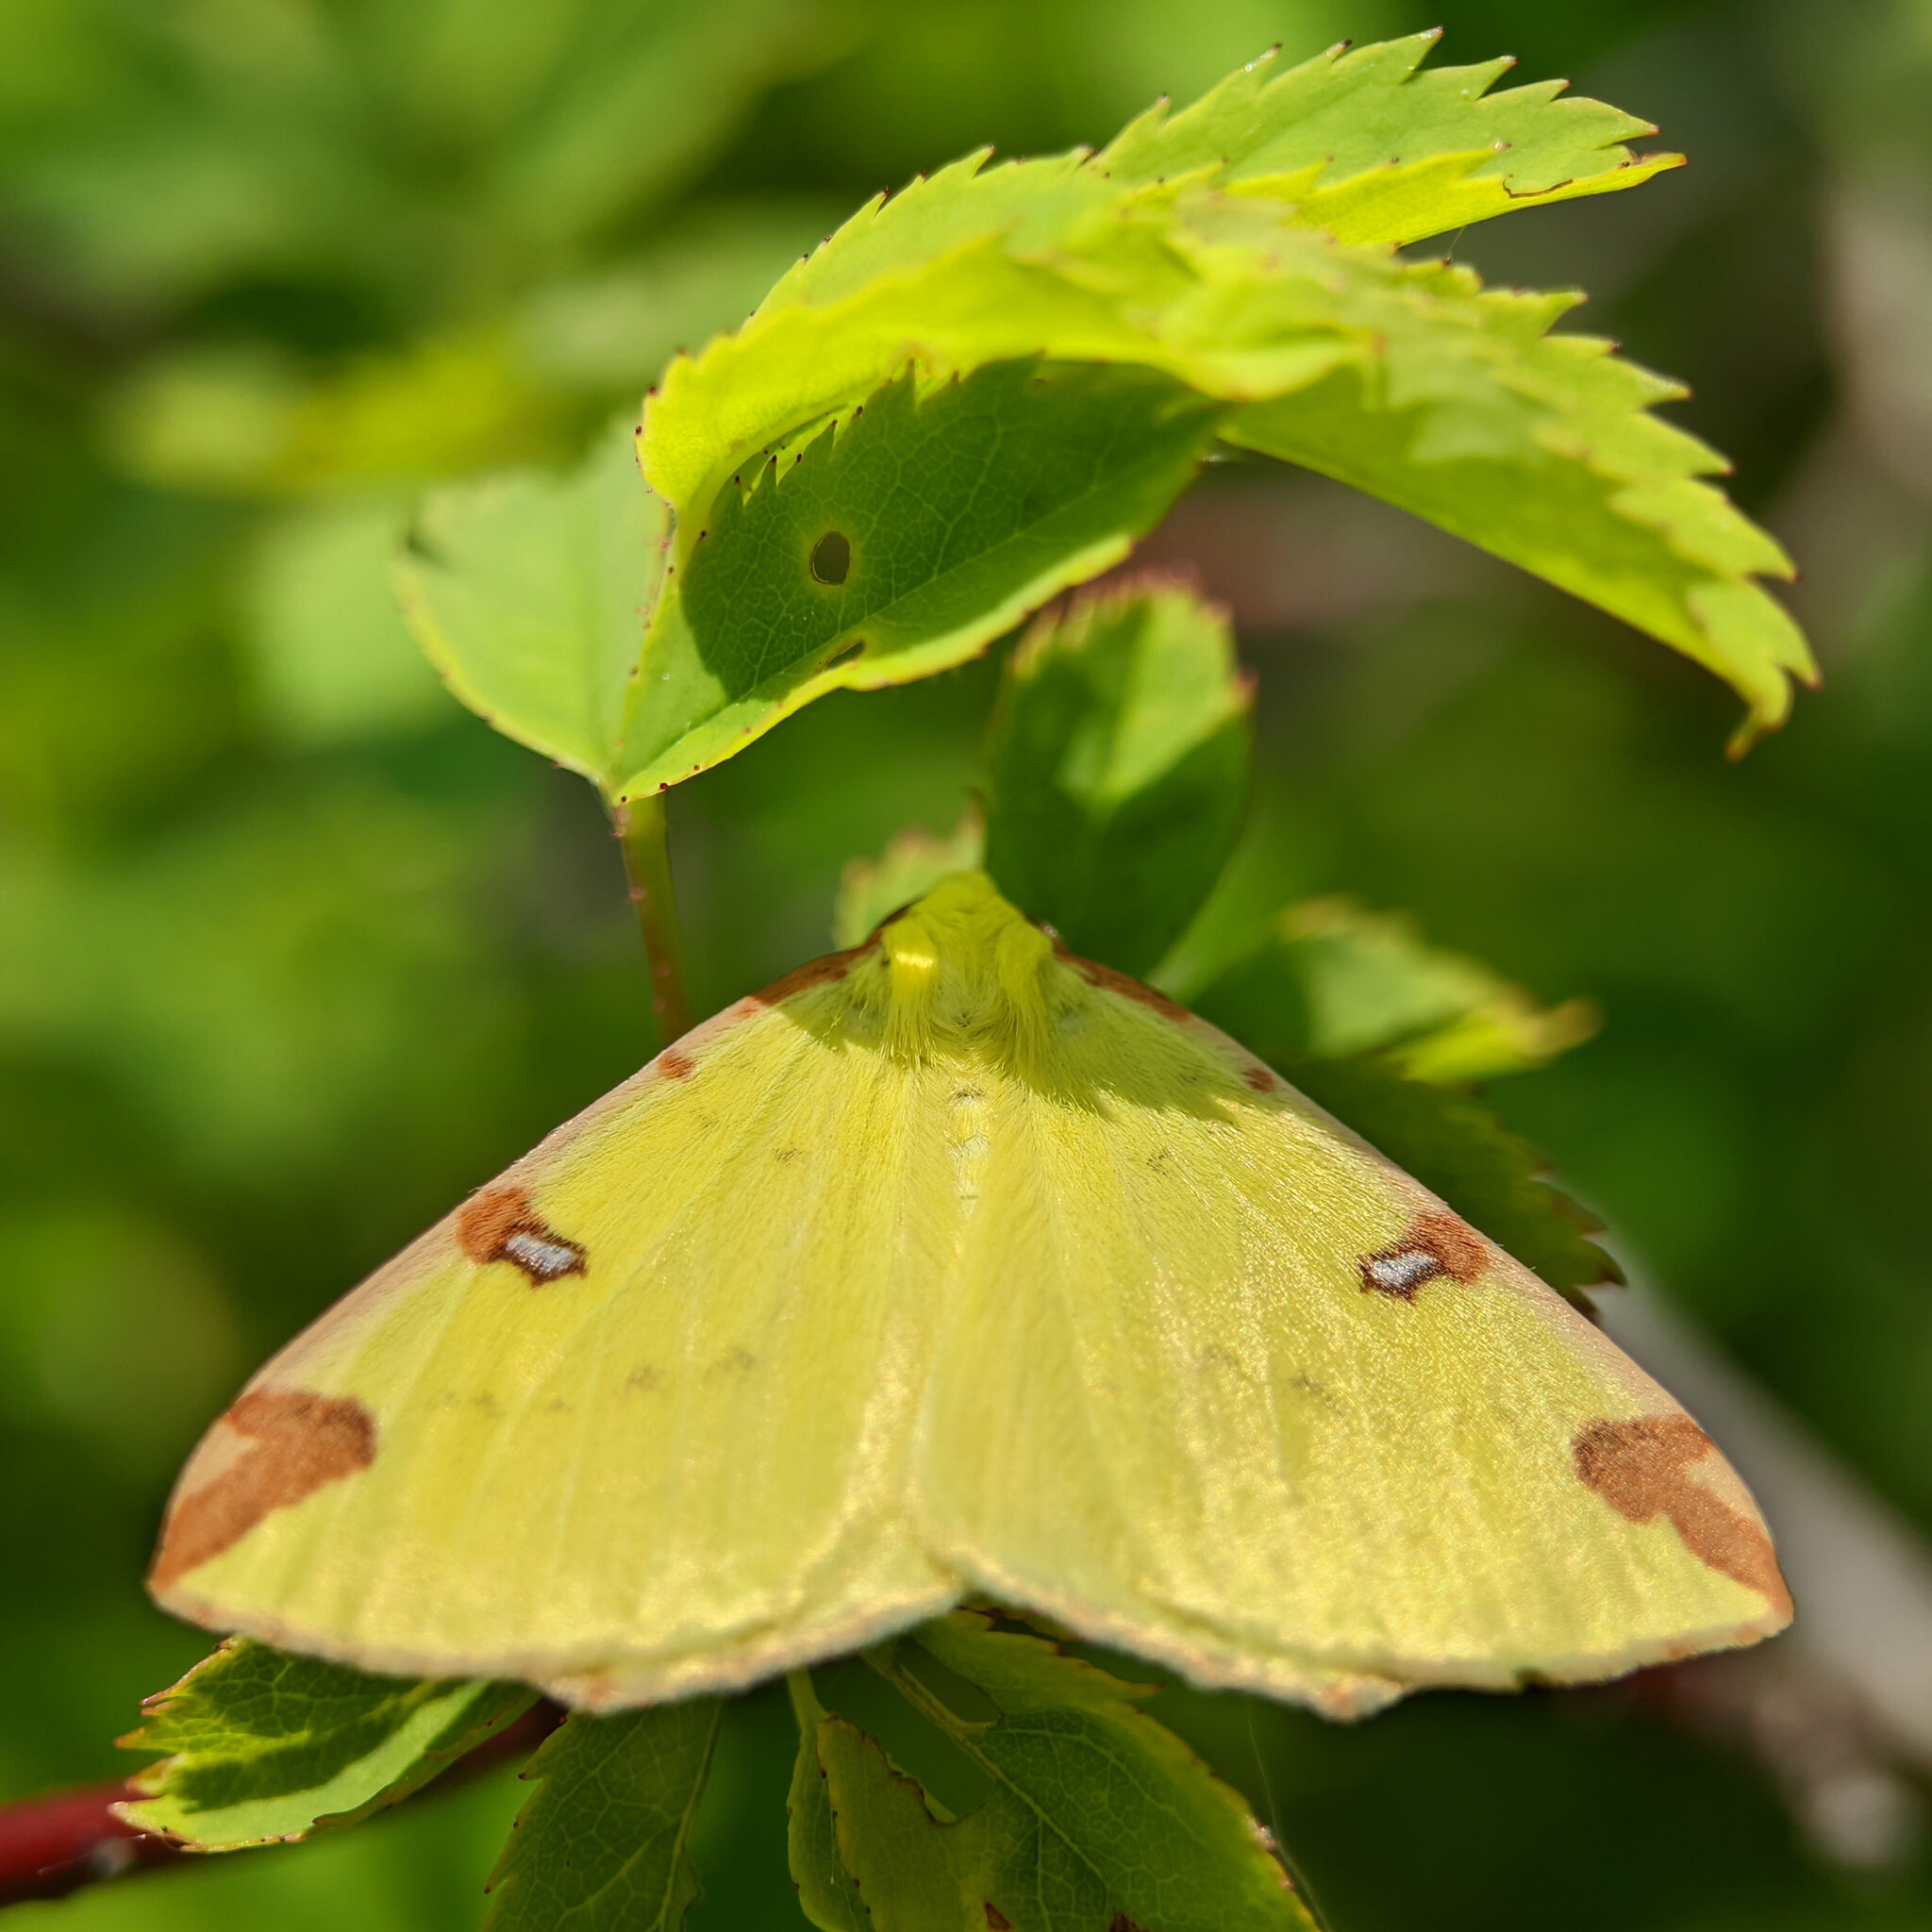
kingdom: Animalia
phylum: Arthropoda
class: Insecta
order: Lepidoptera
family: Geometridae
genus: Opisthograptis
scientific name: Opisthograptis luteolata
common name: Brimstone moth
